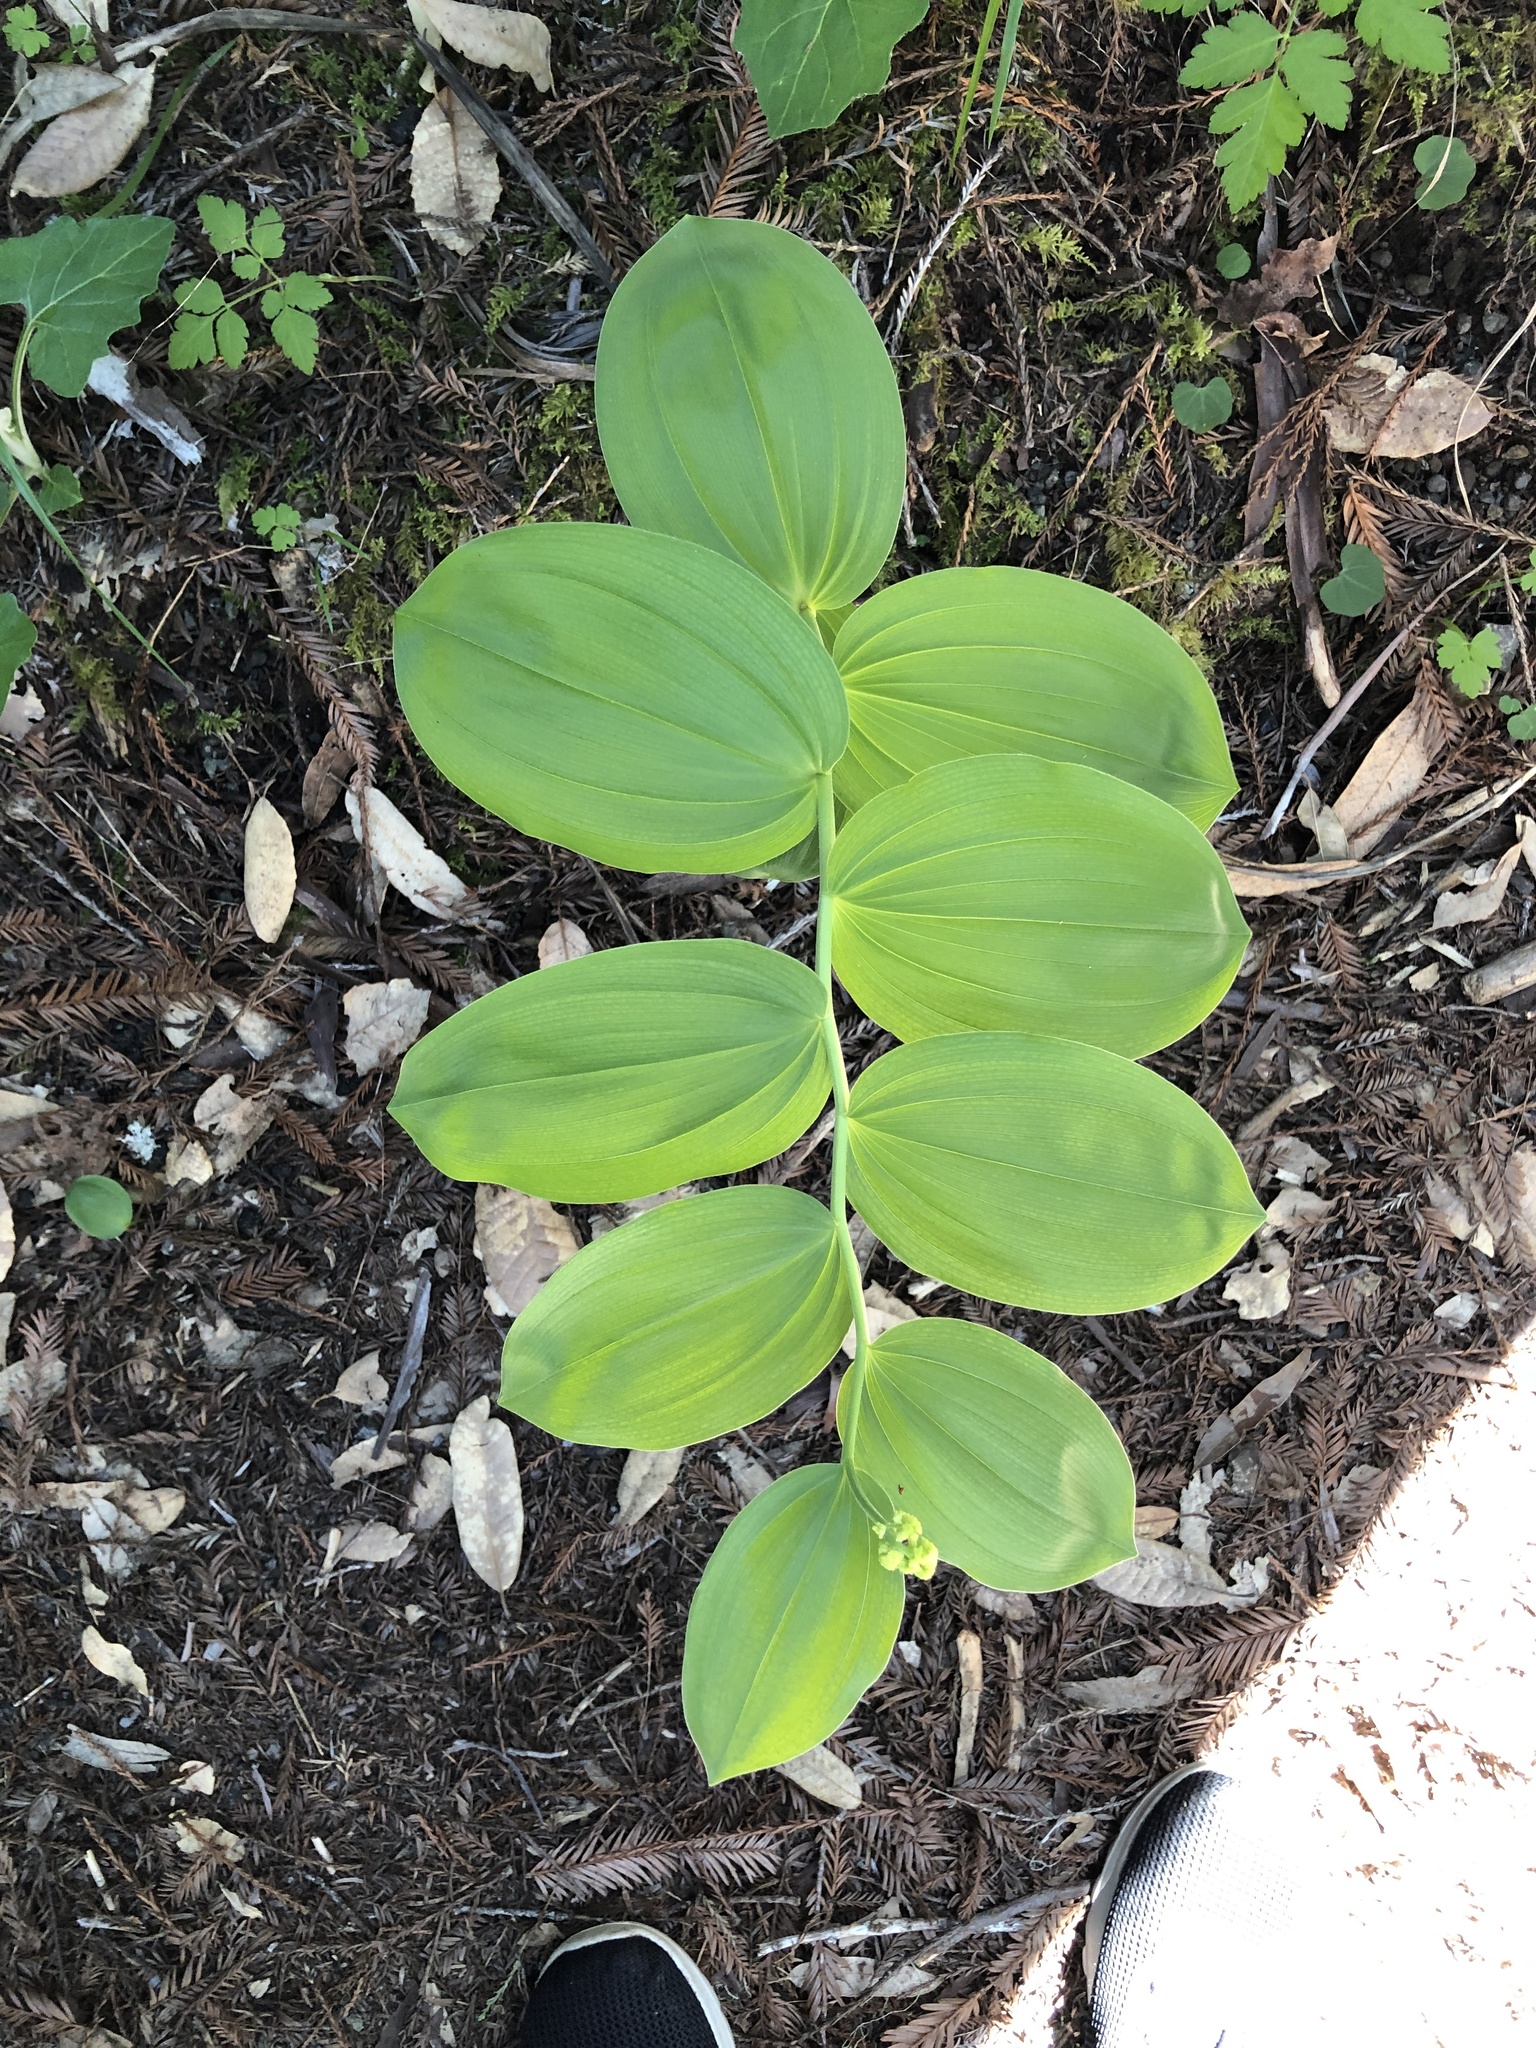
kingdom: Plantae
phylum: Tracheophyta
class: Liliopsida
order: Asparagales
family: Asparagaceae
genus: Maianthemum
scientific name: Maianthemum racemosum
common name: False spikenard
